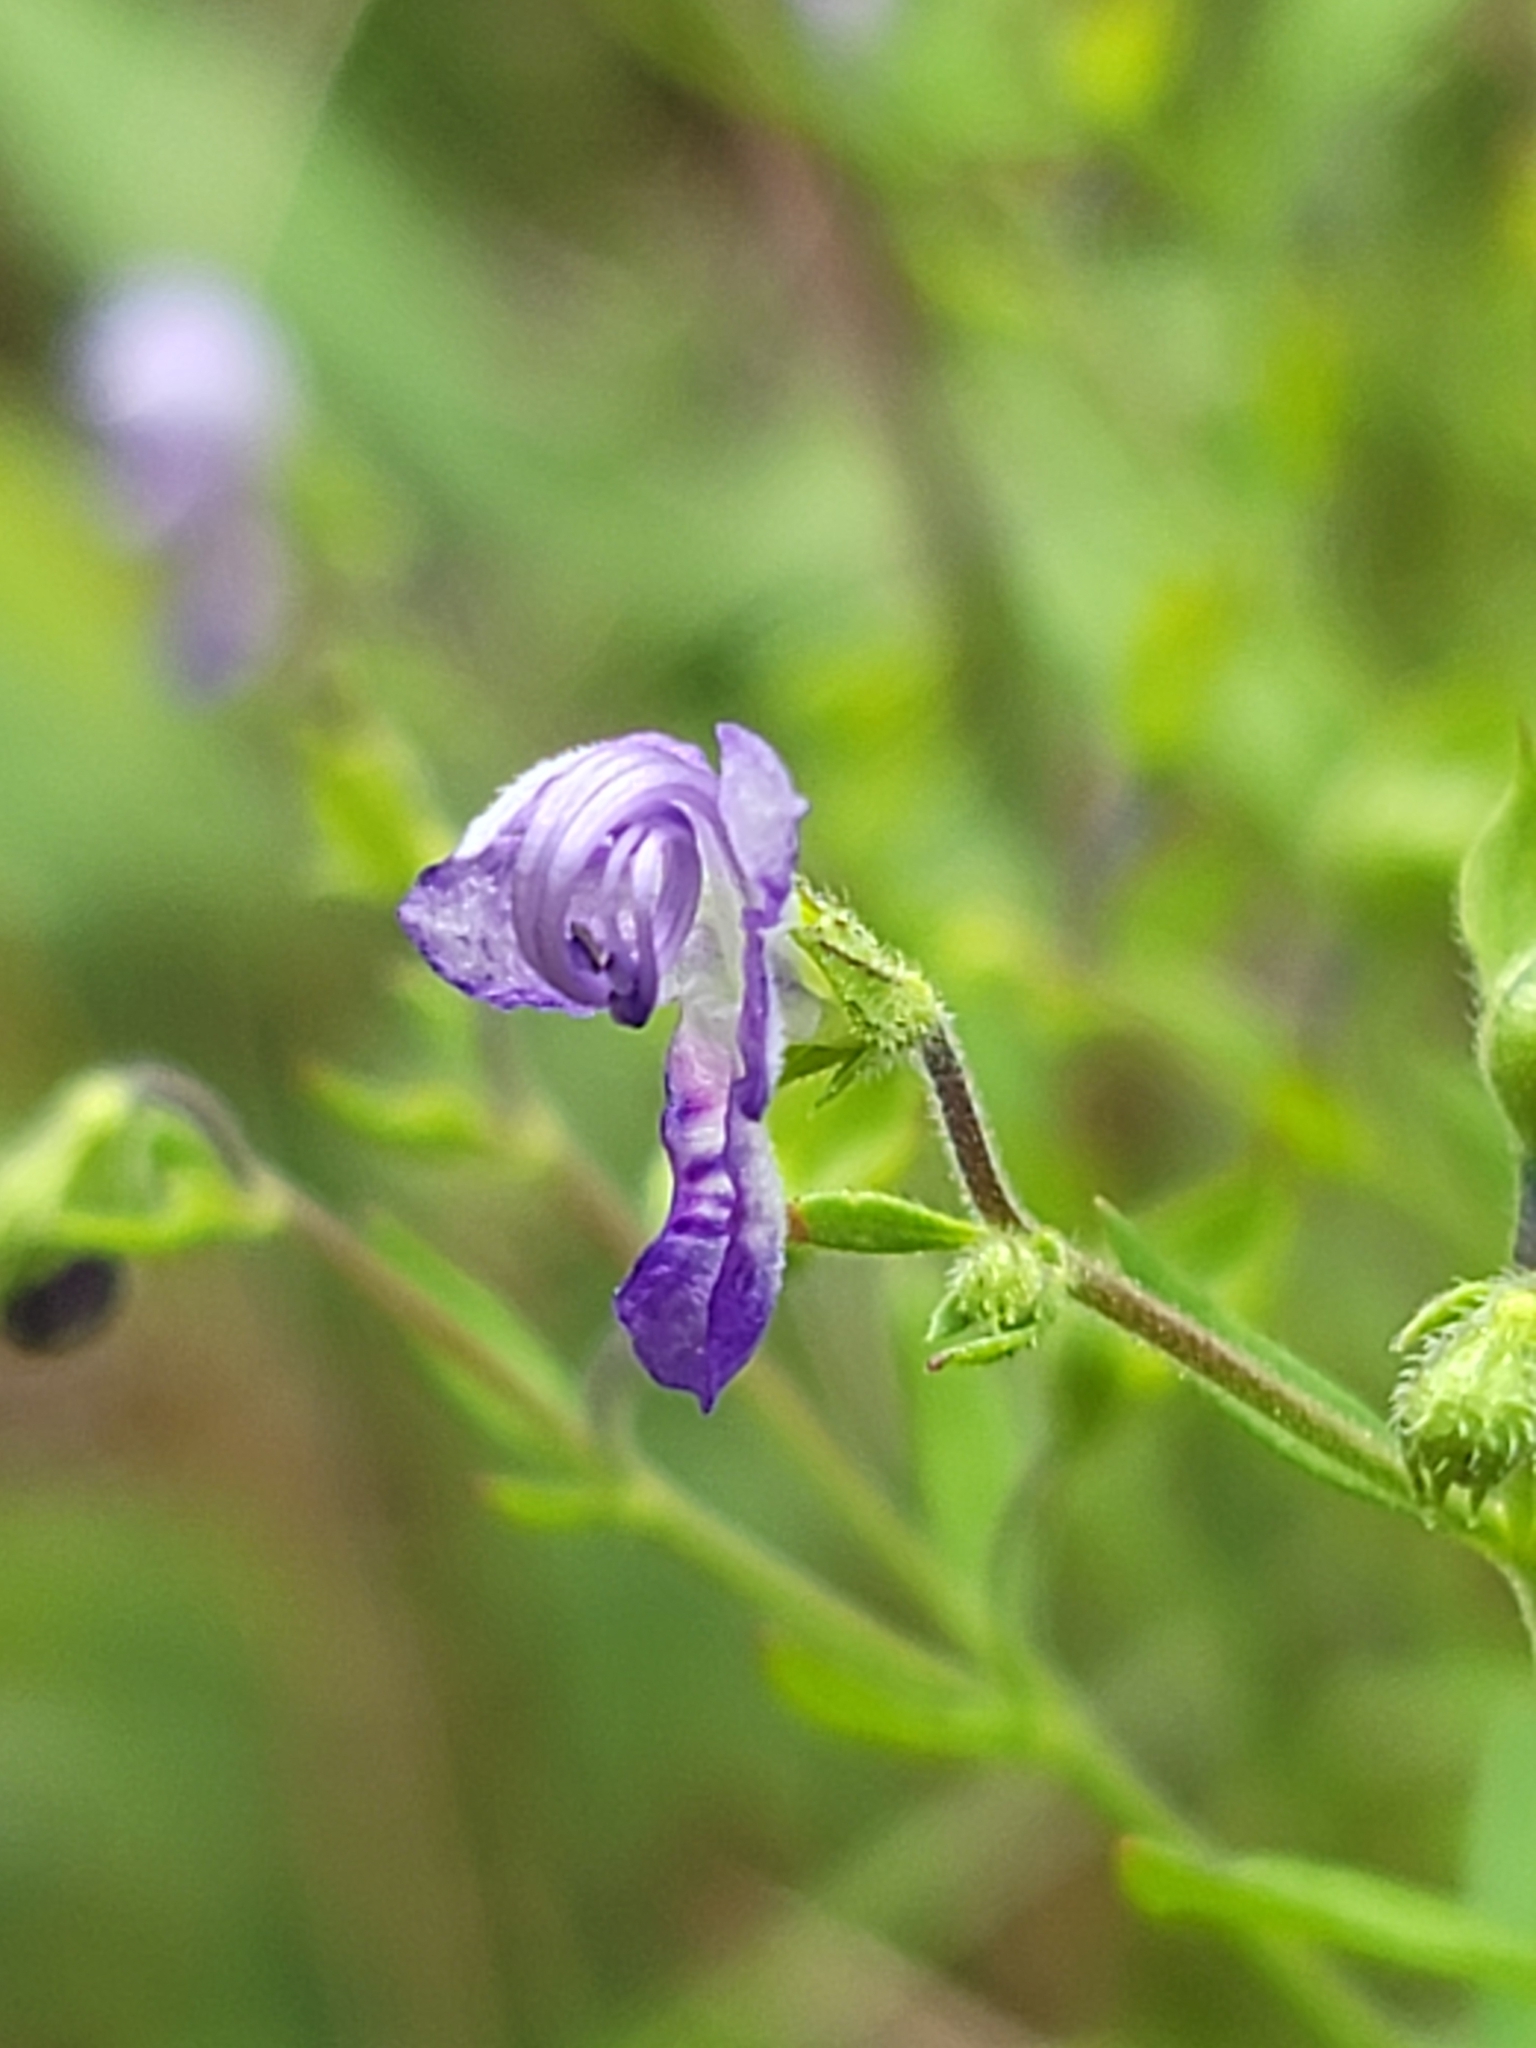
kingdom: Plantae
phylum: Tracheophyta
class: Magnoliopsida
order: Lamiales
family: Lamiaceae
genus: Trichostema
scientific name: Trichostema dichotomum
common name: Bastard pennyroyal
